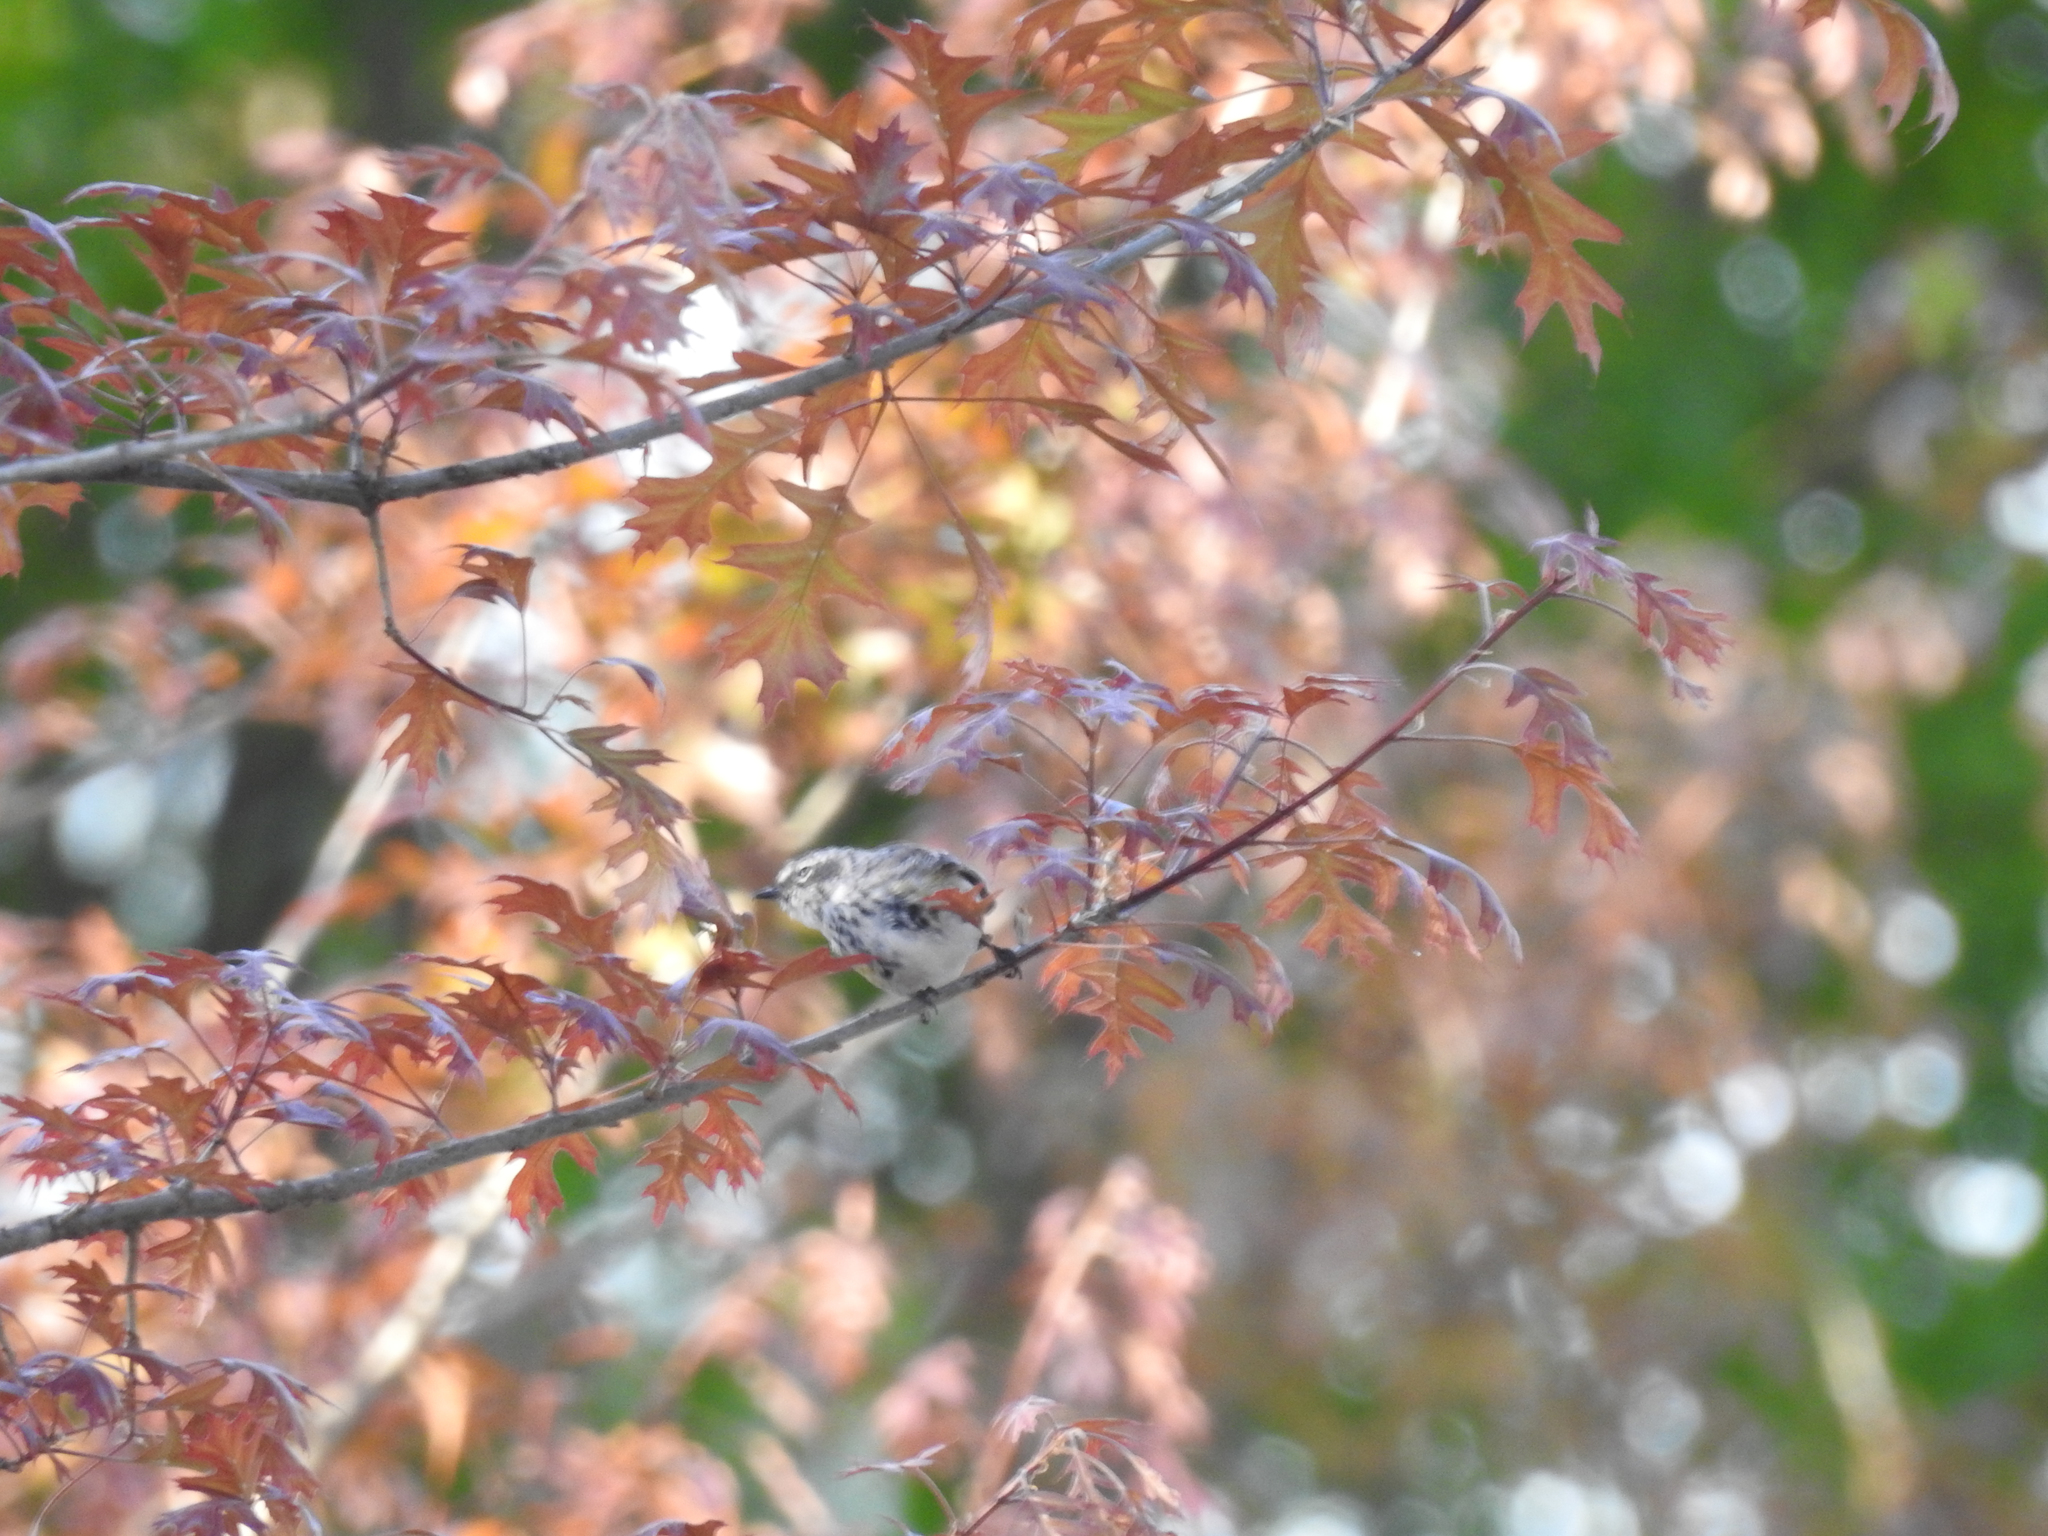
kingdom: Animalia
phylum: Chordata
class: Aves
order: Passeriformes
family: Parulidae
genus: Setophaga
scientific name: Setophaga coronata
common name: Myrtle warbler
